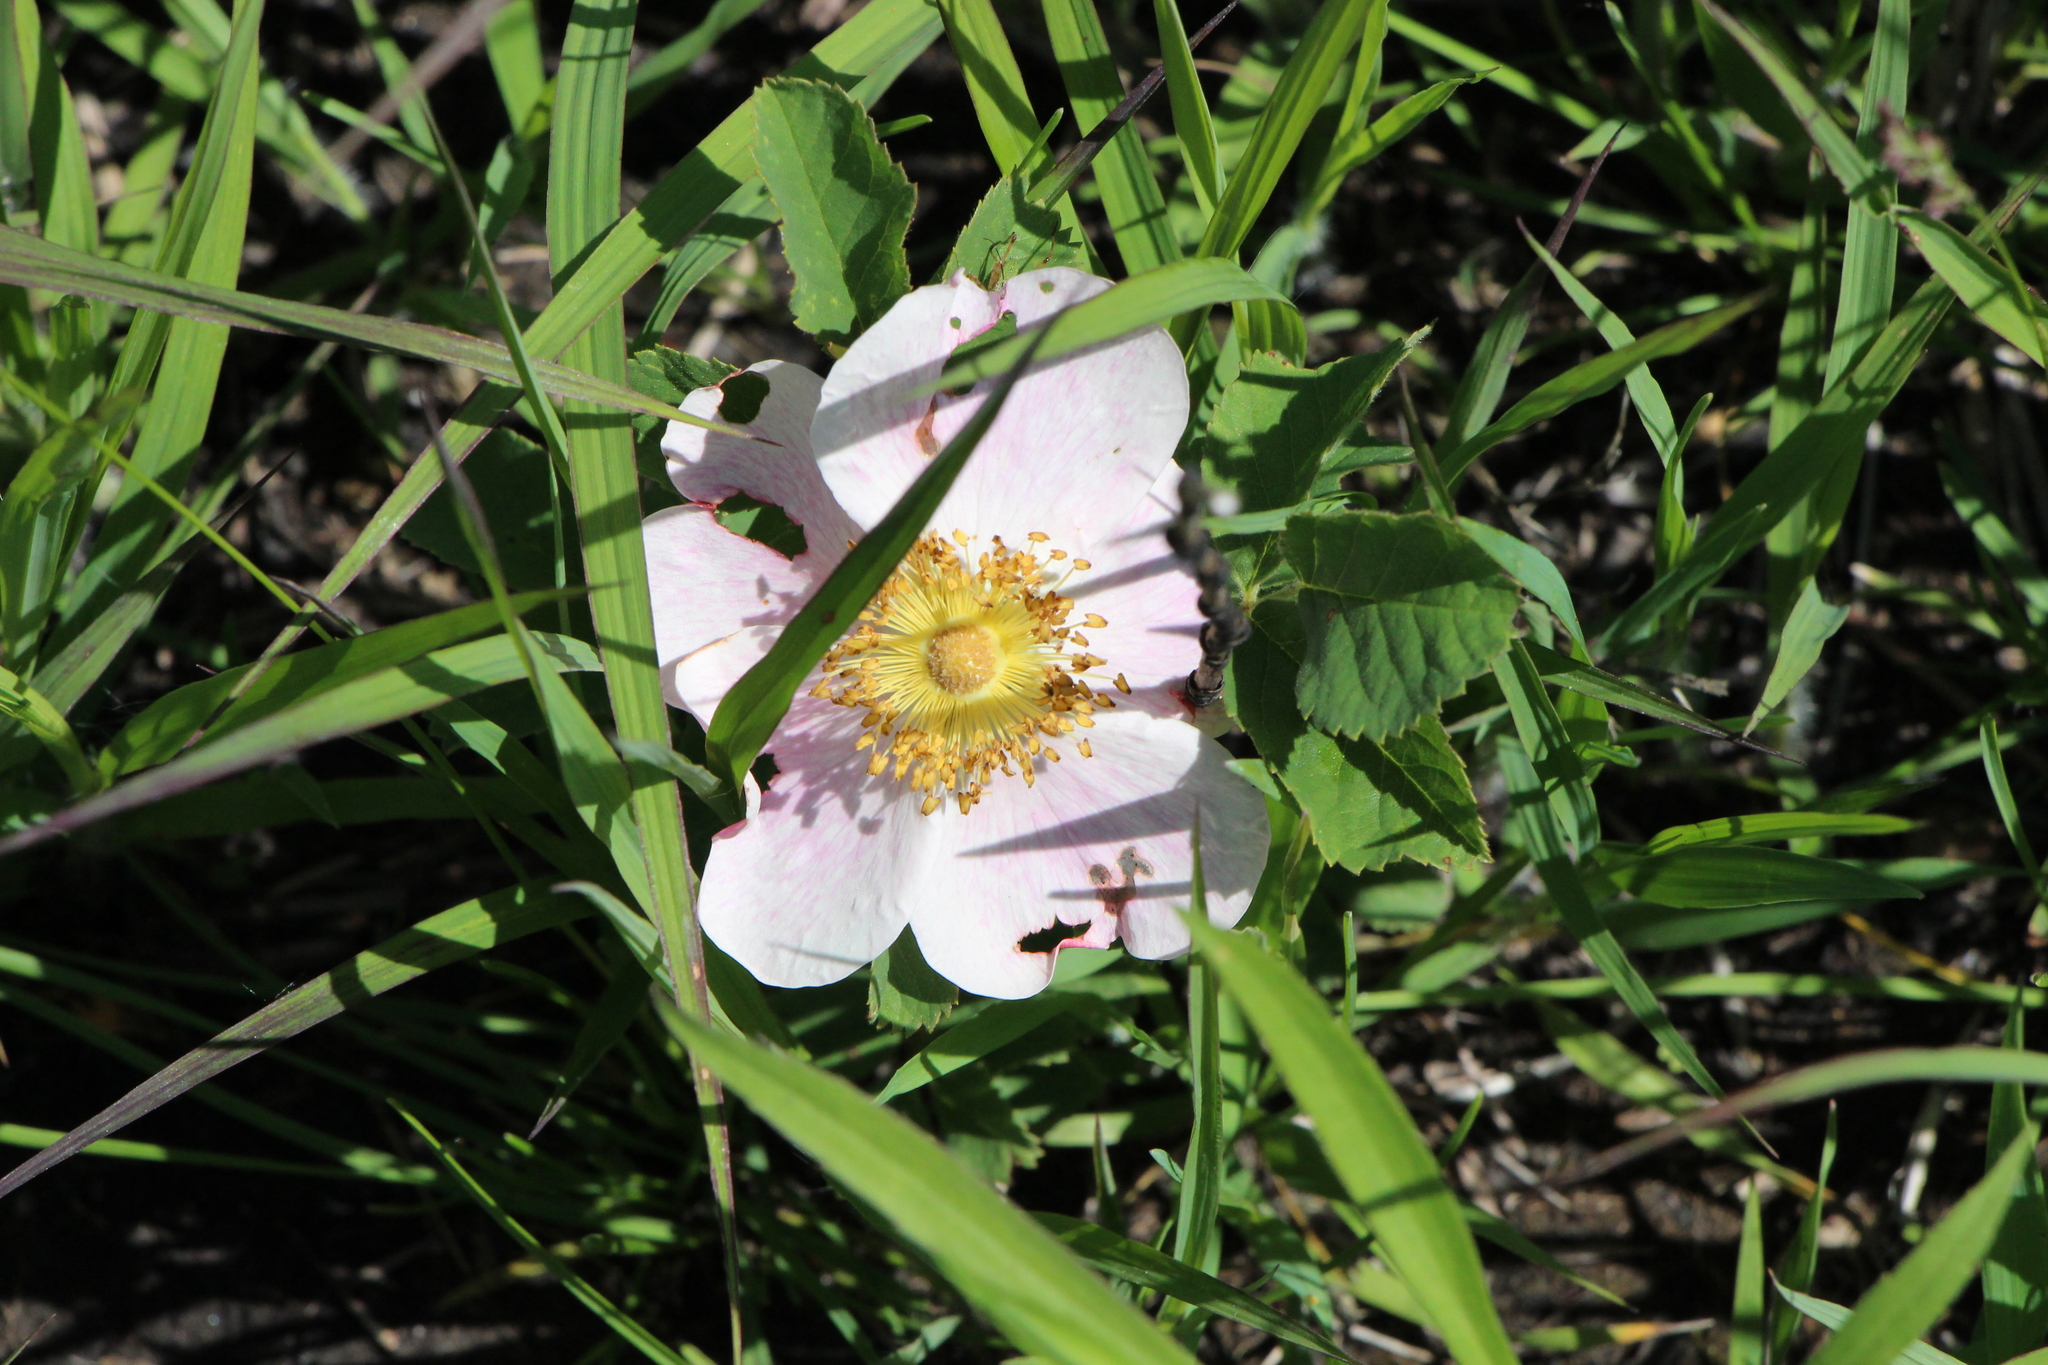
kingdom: Plantae
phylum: Tracheophyta
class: Magnoliopsida
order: Rosales
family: Rosaceae
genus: Rosa
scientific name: Rosa arkansana
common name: Prairie rose
